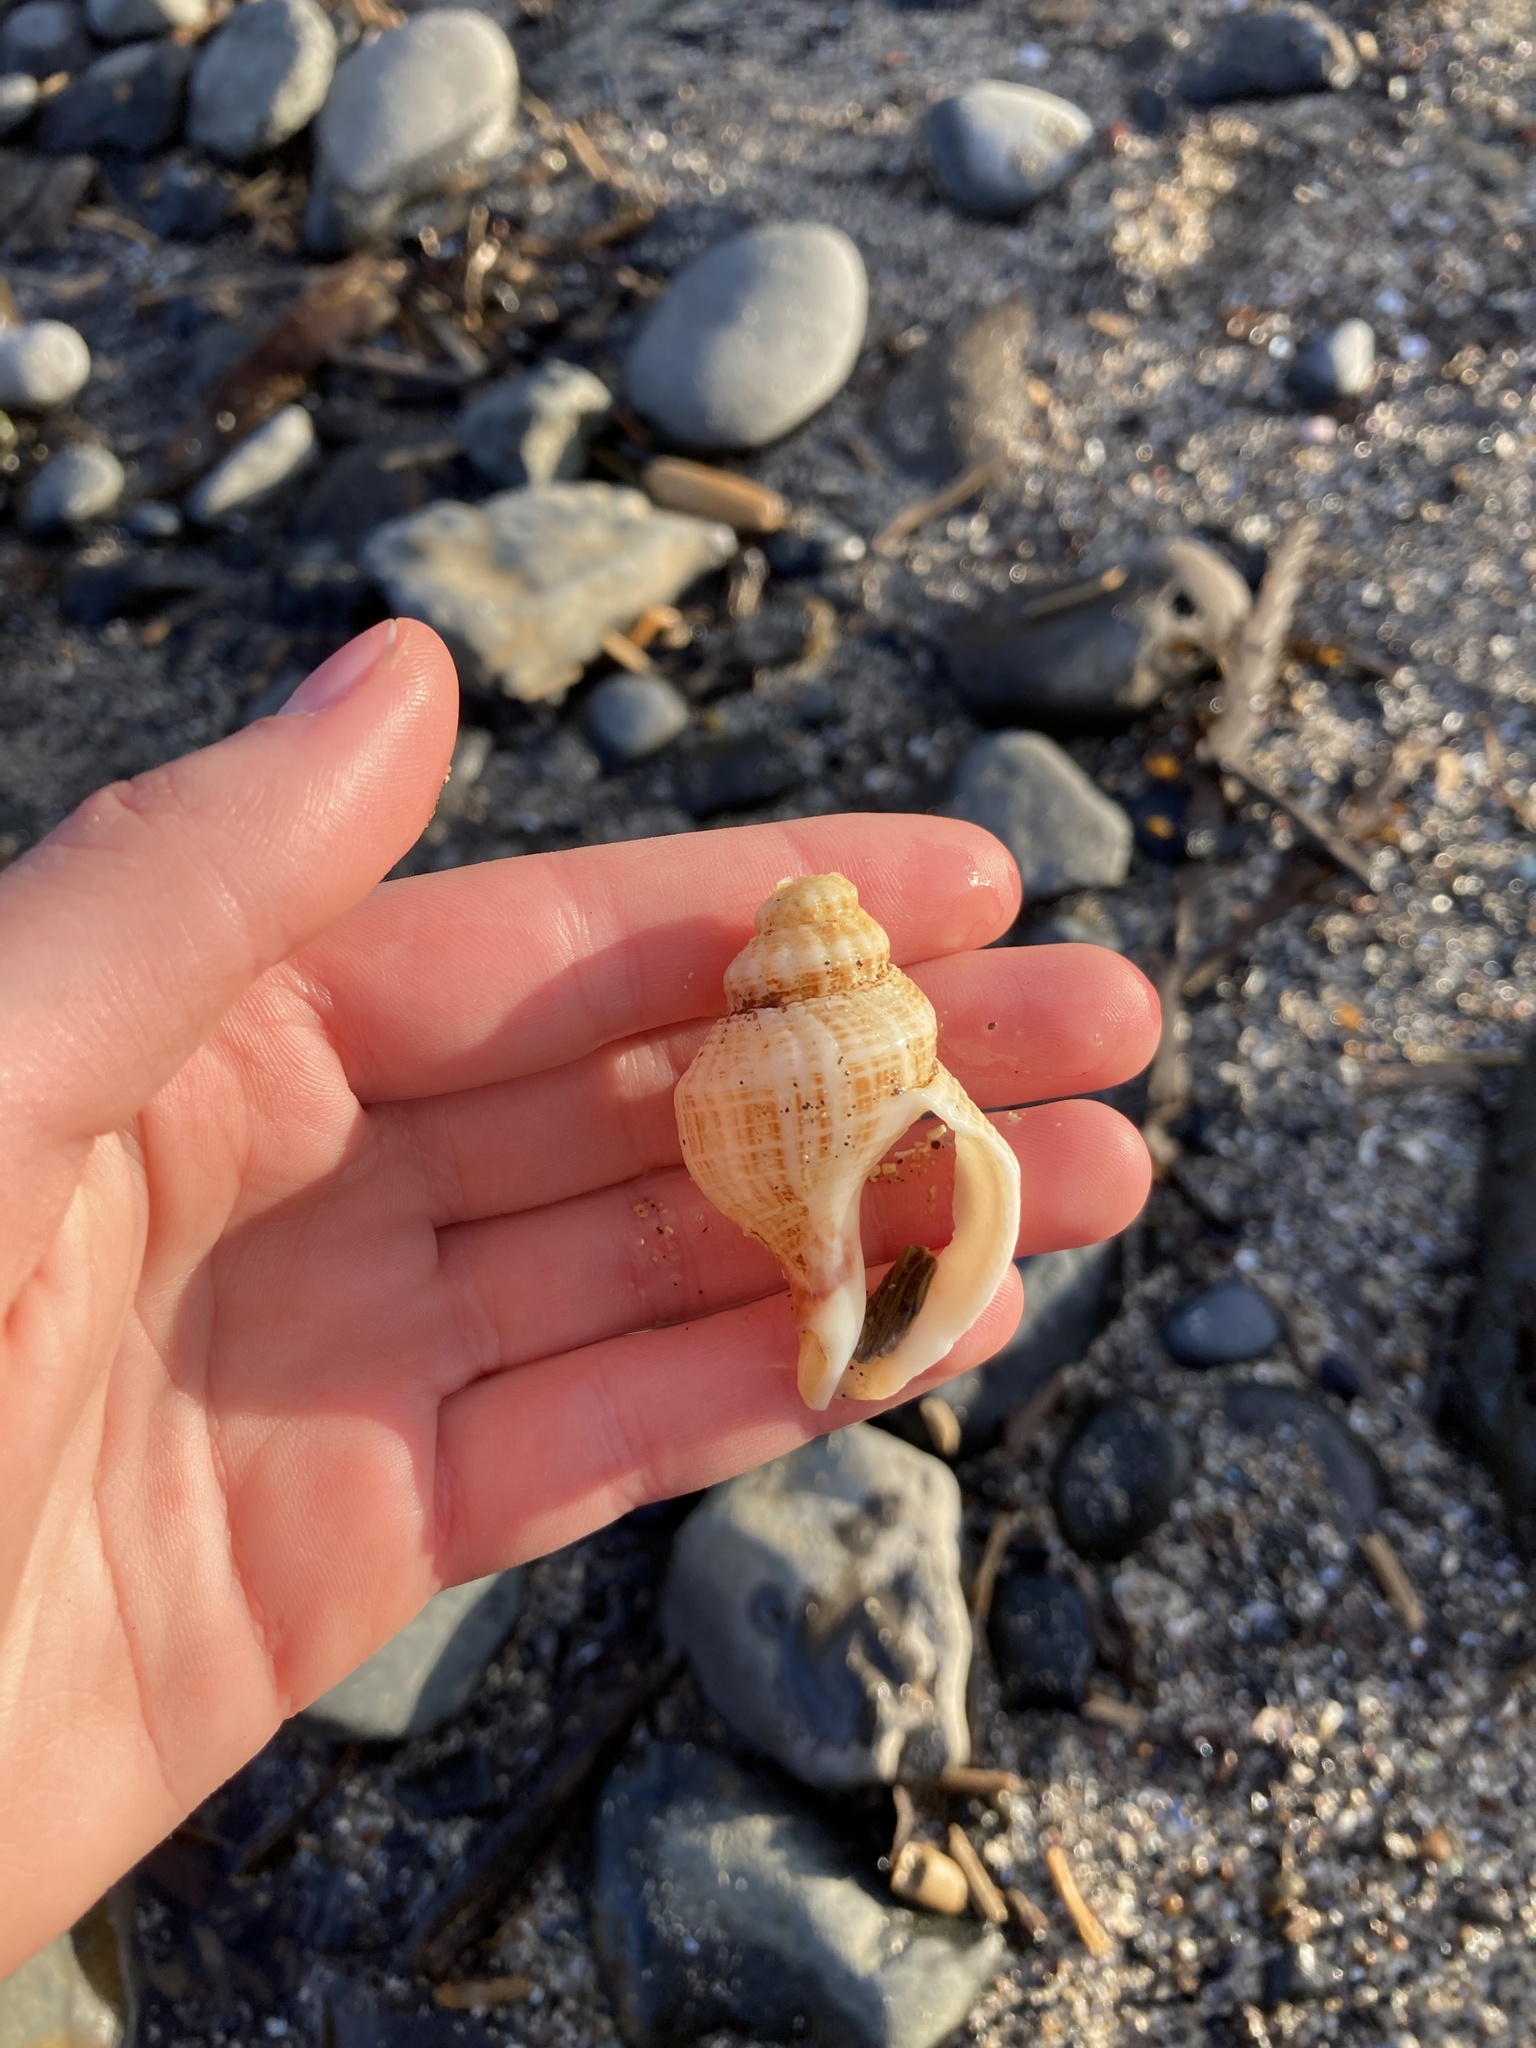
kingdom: Animalia
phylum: Mollusca
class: Gastropoda
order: Neogastropoda
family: Prosiphonidae
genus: Austrofusus
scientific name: Austrofusus glans
